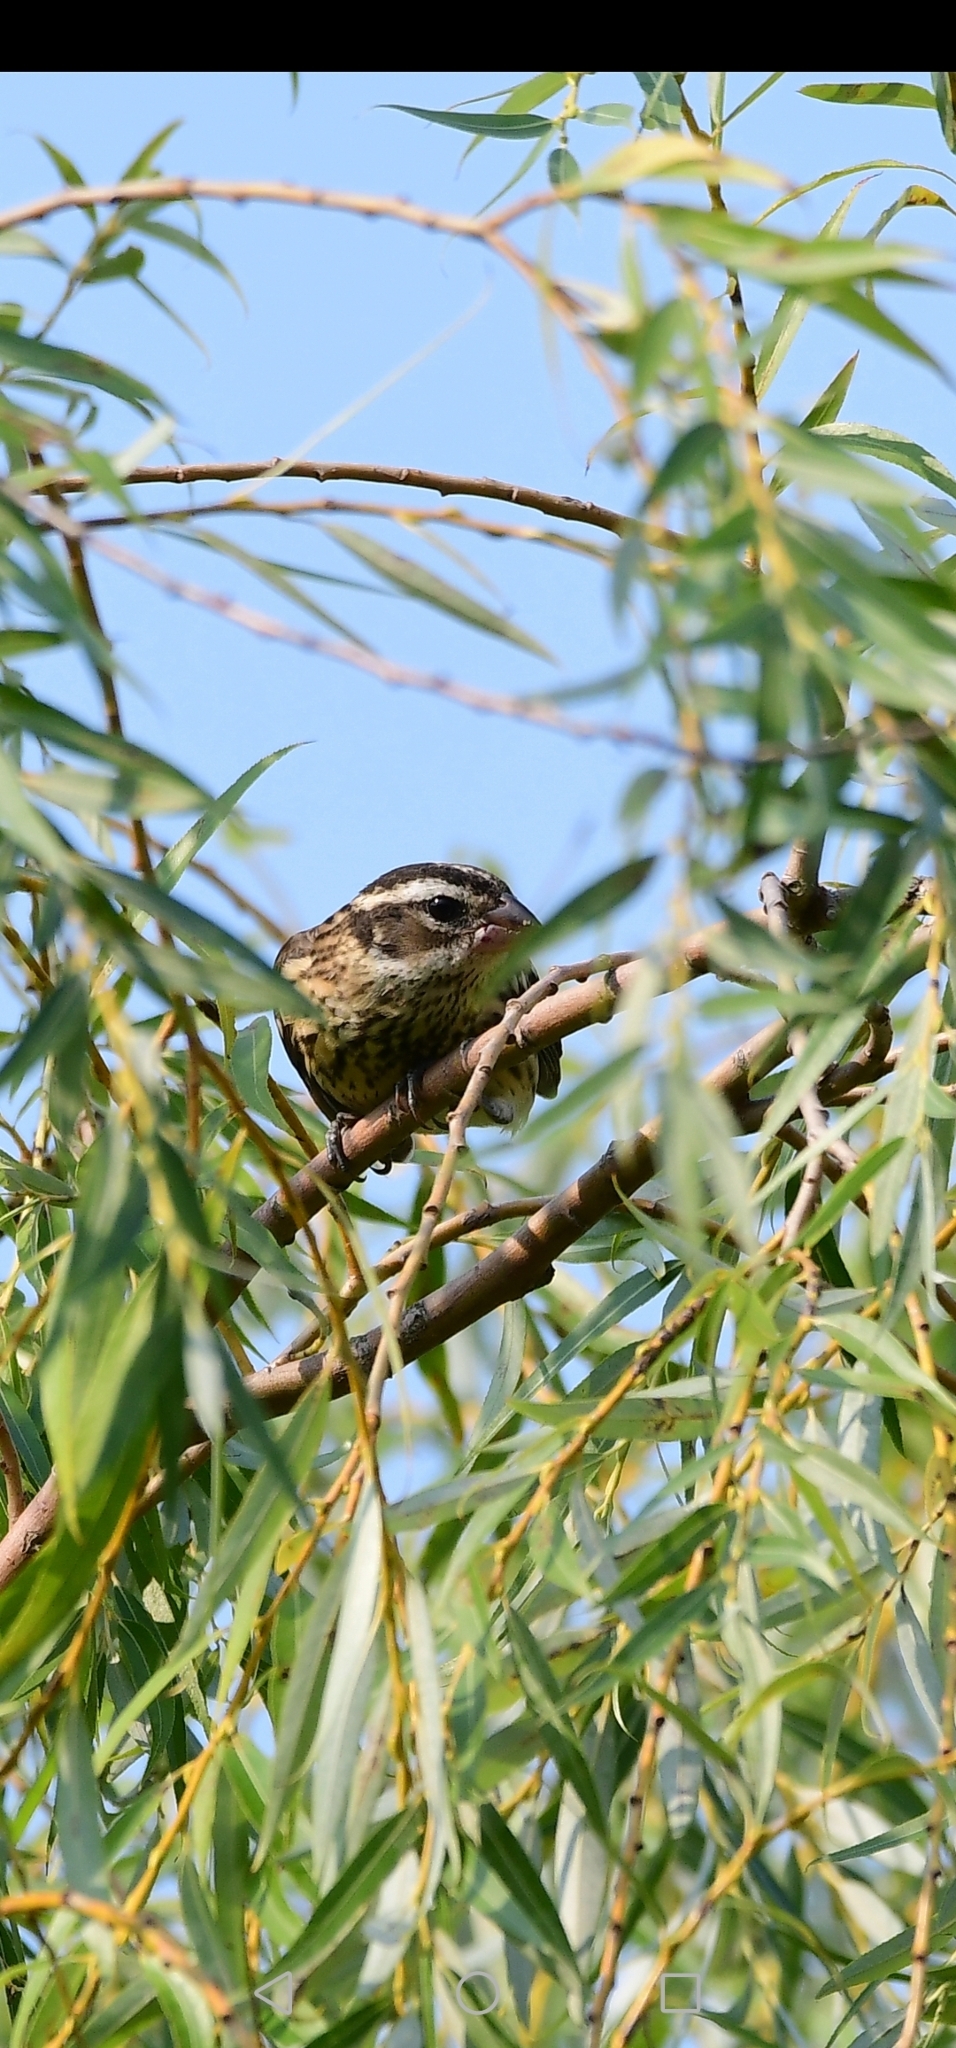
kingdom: Animalia
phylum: Chordata
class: Aves
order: Passeriformes
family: Cardinalidae
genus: Pheucticus
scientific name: Pheucticus ludovicianus
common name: Rose-breasted grosbeak
